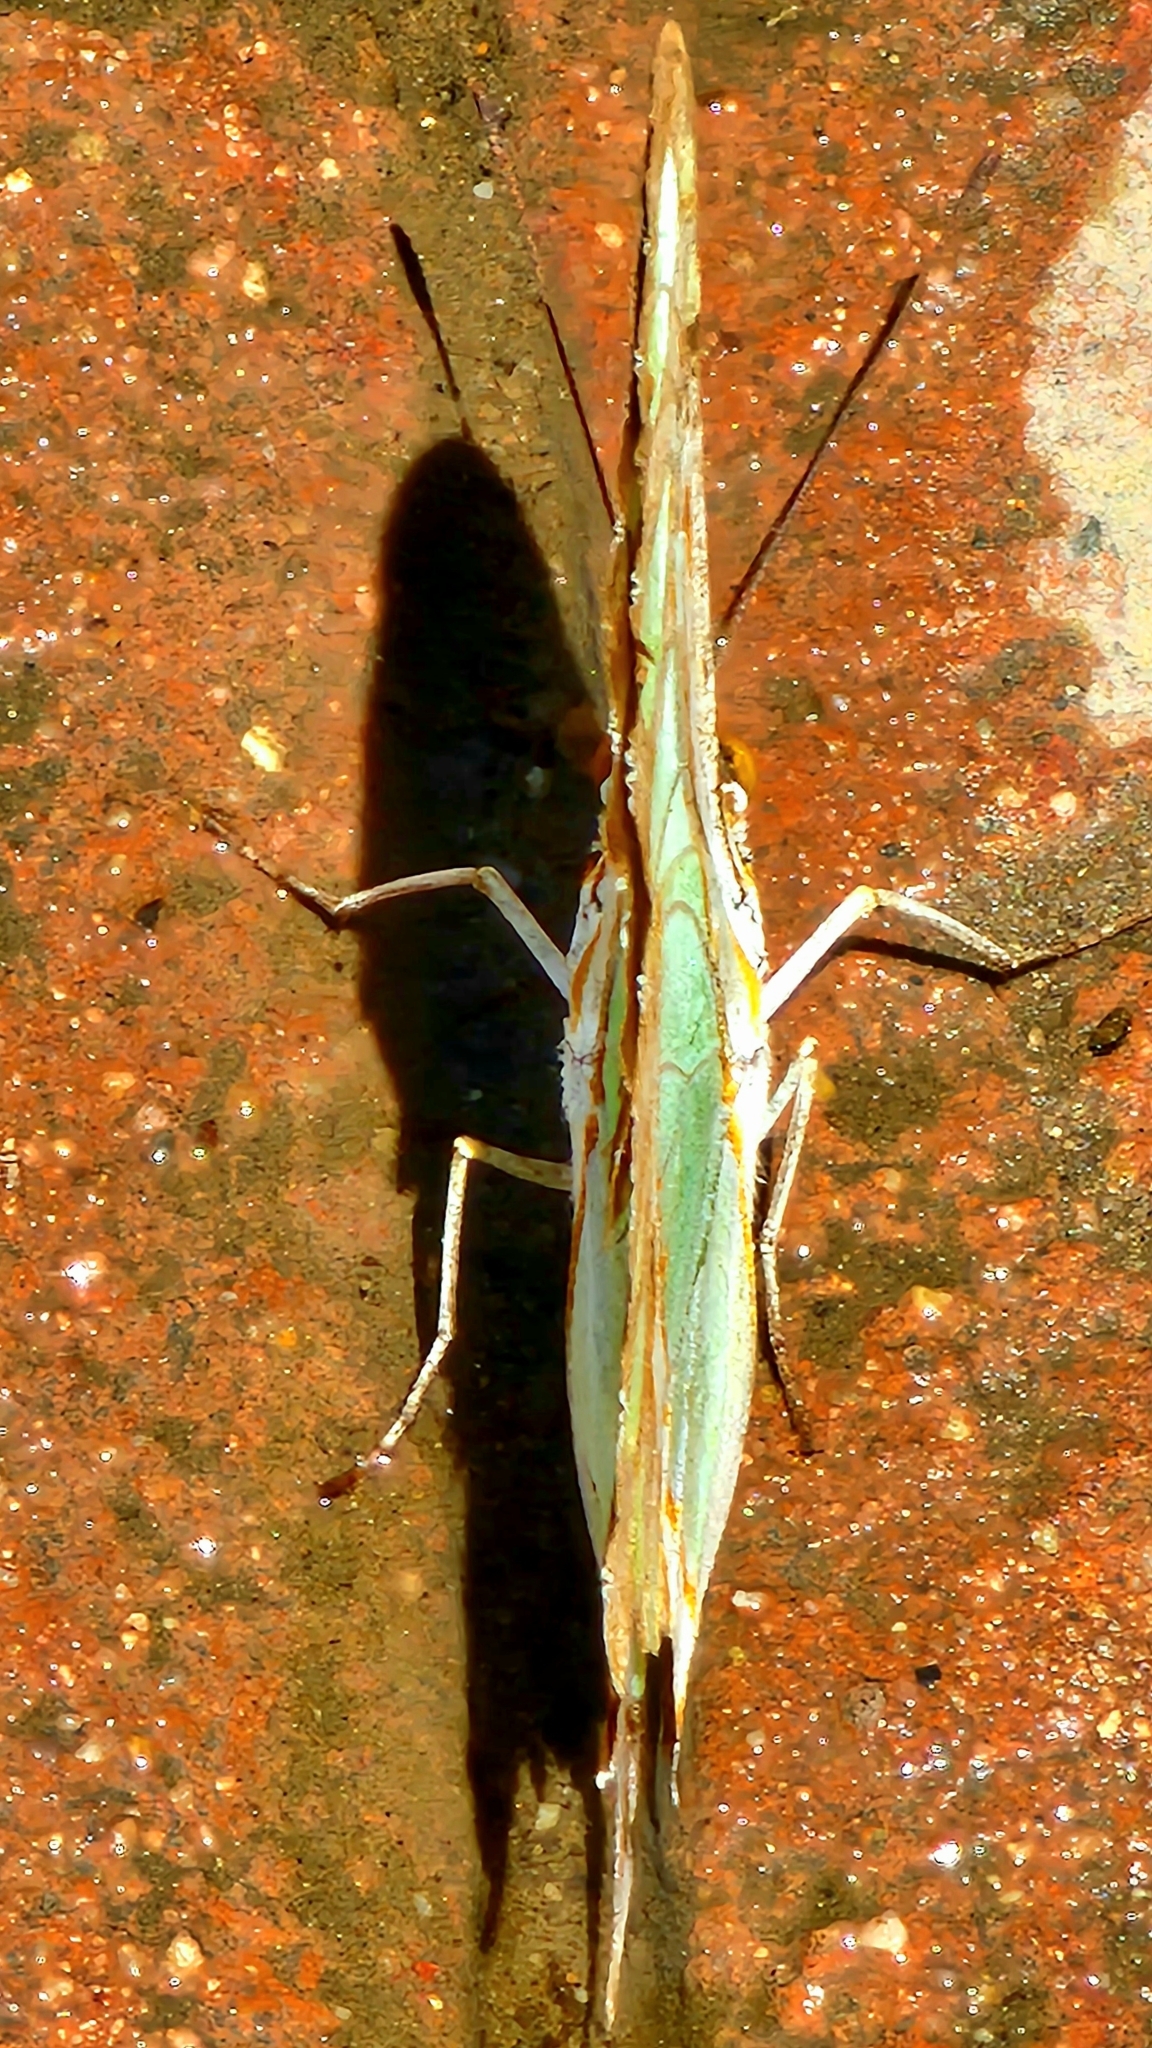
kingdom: Animalia
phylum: Arthropoda
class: Insecta
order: Lepidoptera
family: Nymphalidae
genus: Siproeta
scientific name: Siproeta stelenes
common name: Malachite
